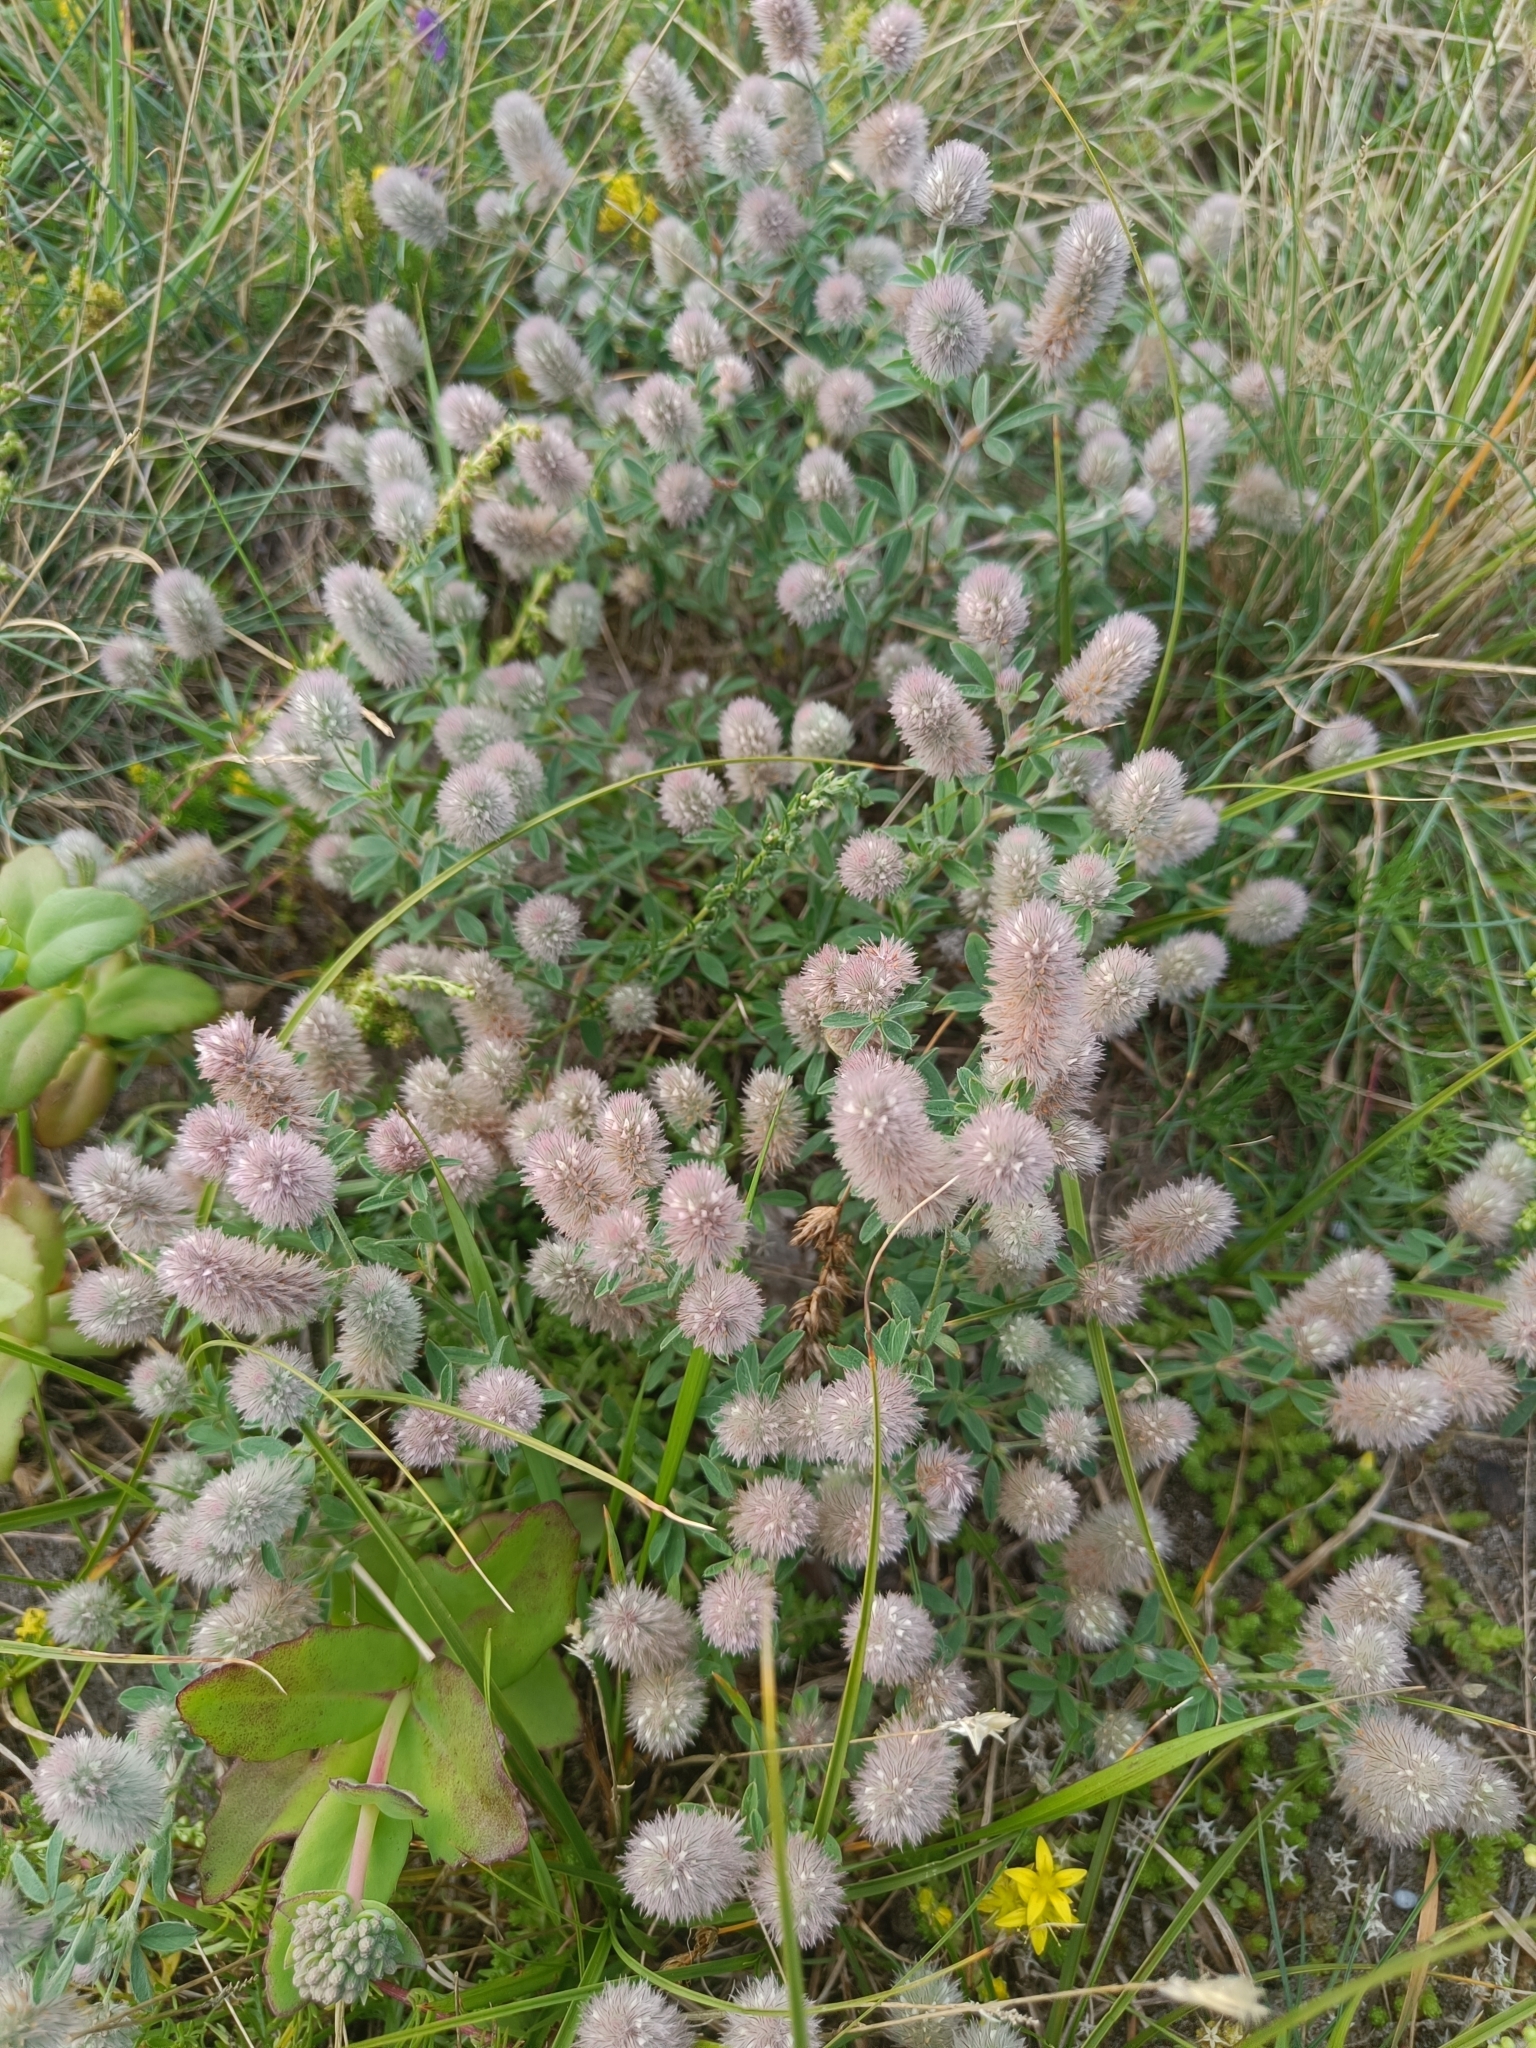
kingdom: Plantae
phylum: Tracheophyta
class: Magnoliopsida
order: Fabales
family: Fabaceae
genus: Trifolium
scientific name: Trifolium arvense
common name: Hare's-foot clover
